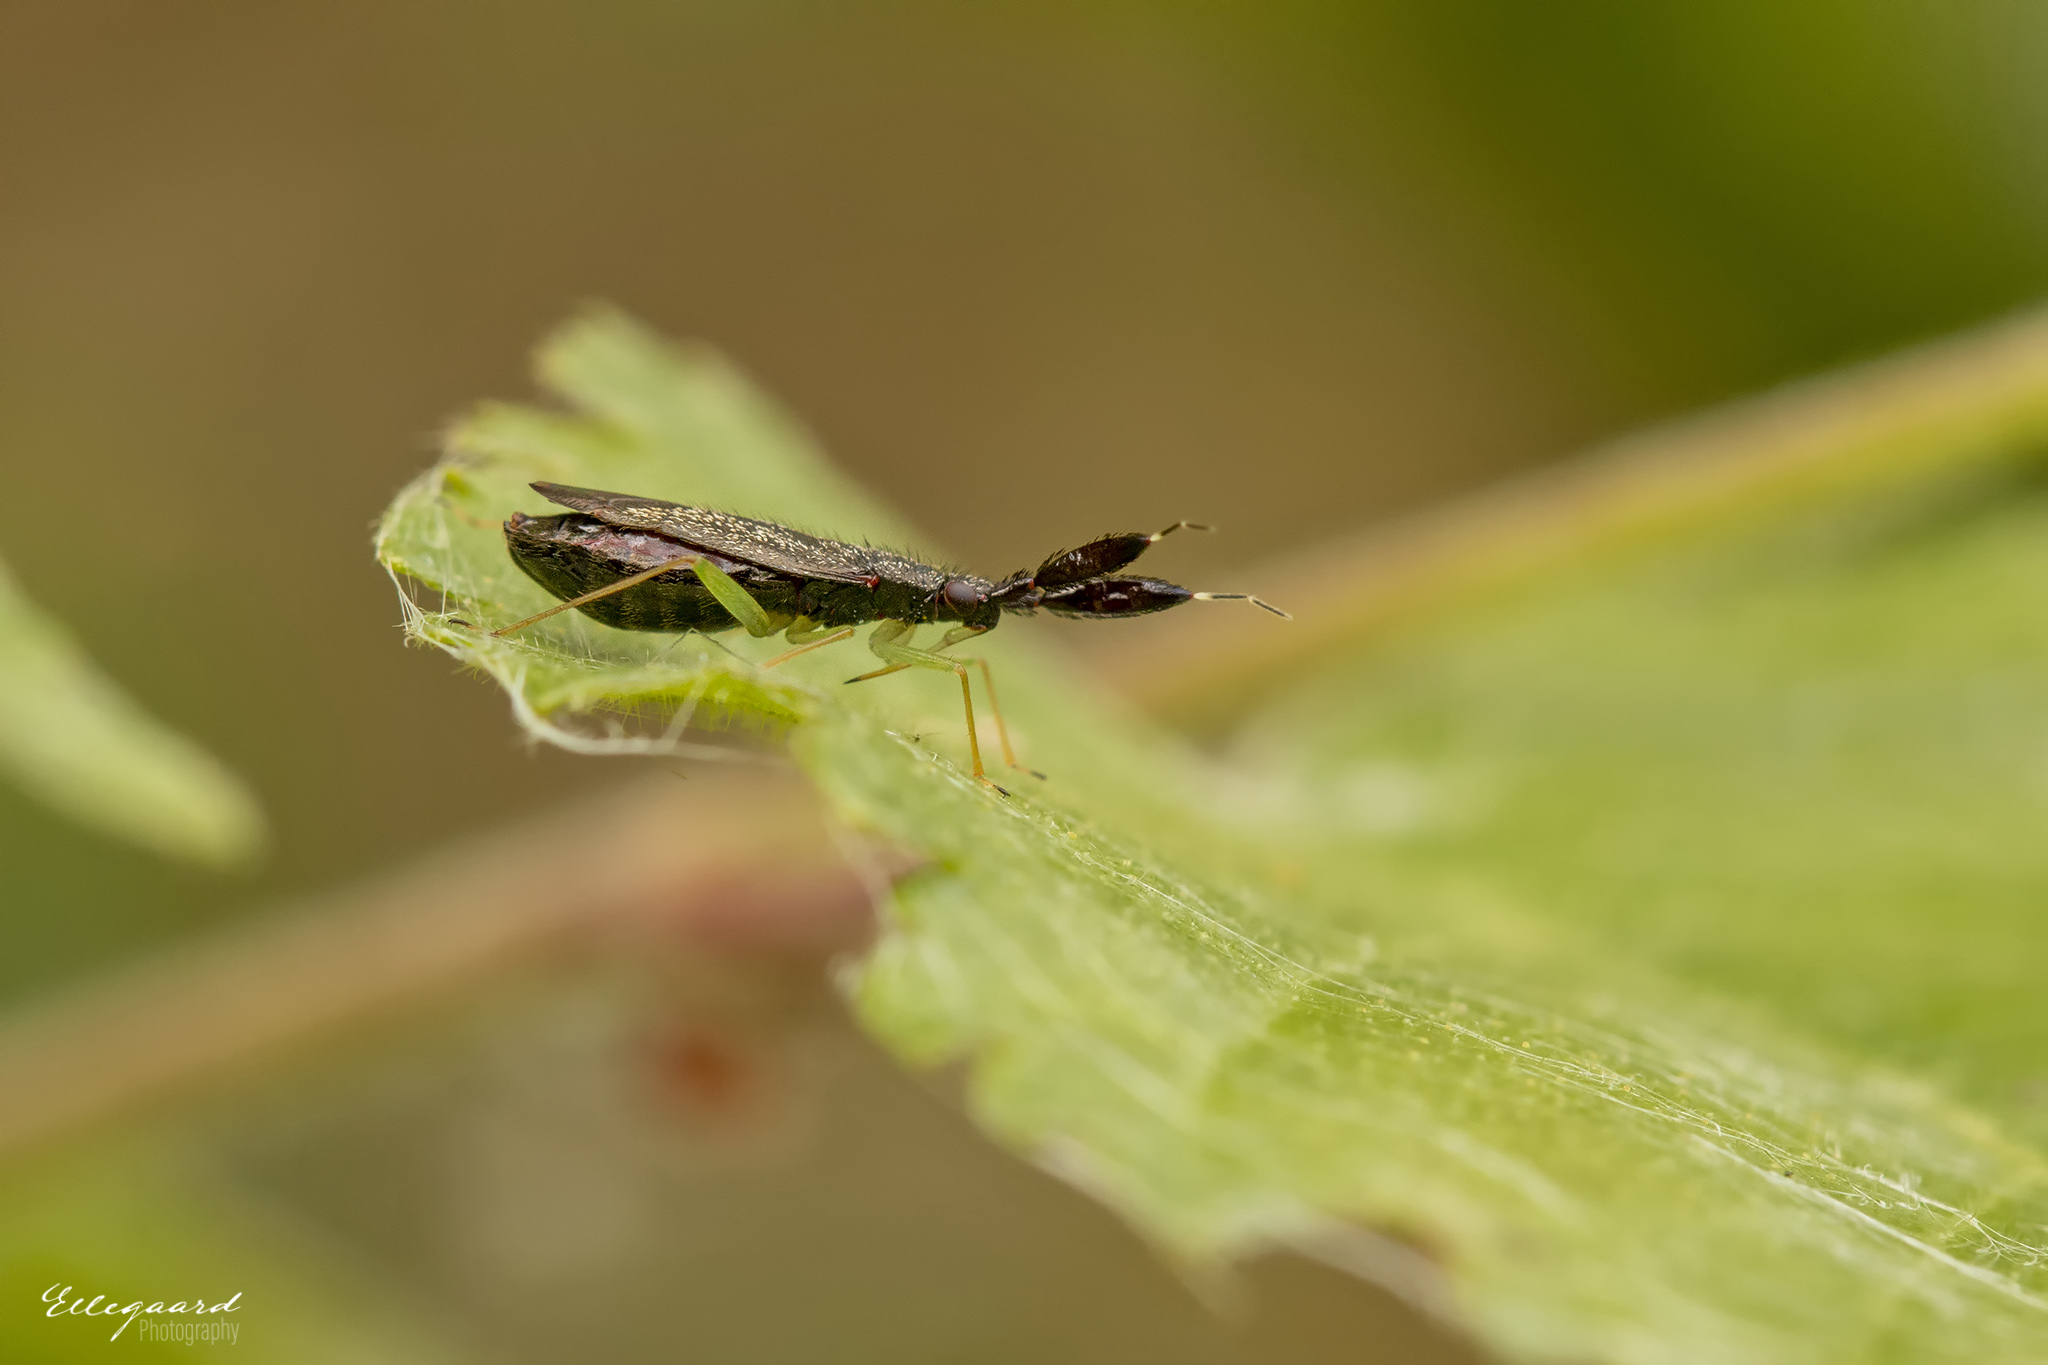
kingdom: Animalia
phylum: Arthropoda
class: Insecta
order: Hemiptera
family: Miridae
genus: Heterotoma
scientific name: Heterotoma planicornis
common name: Plant bug
